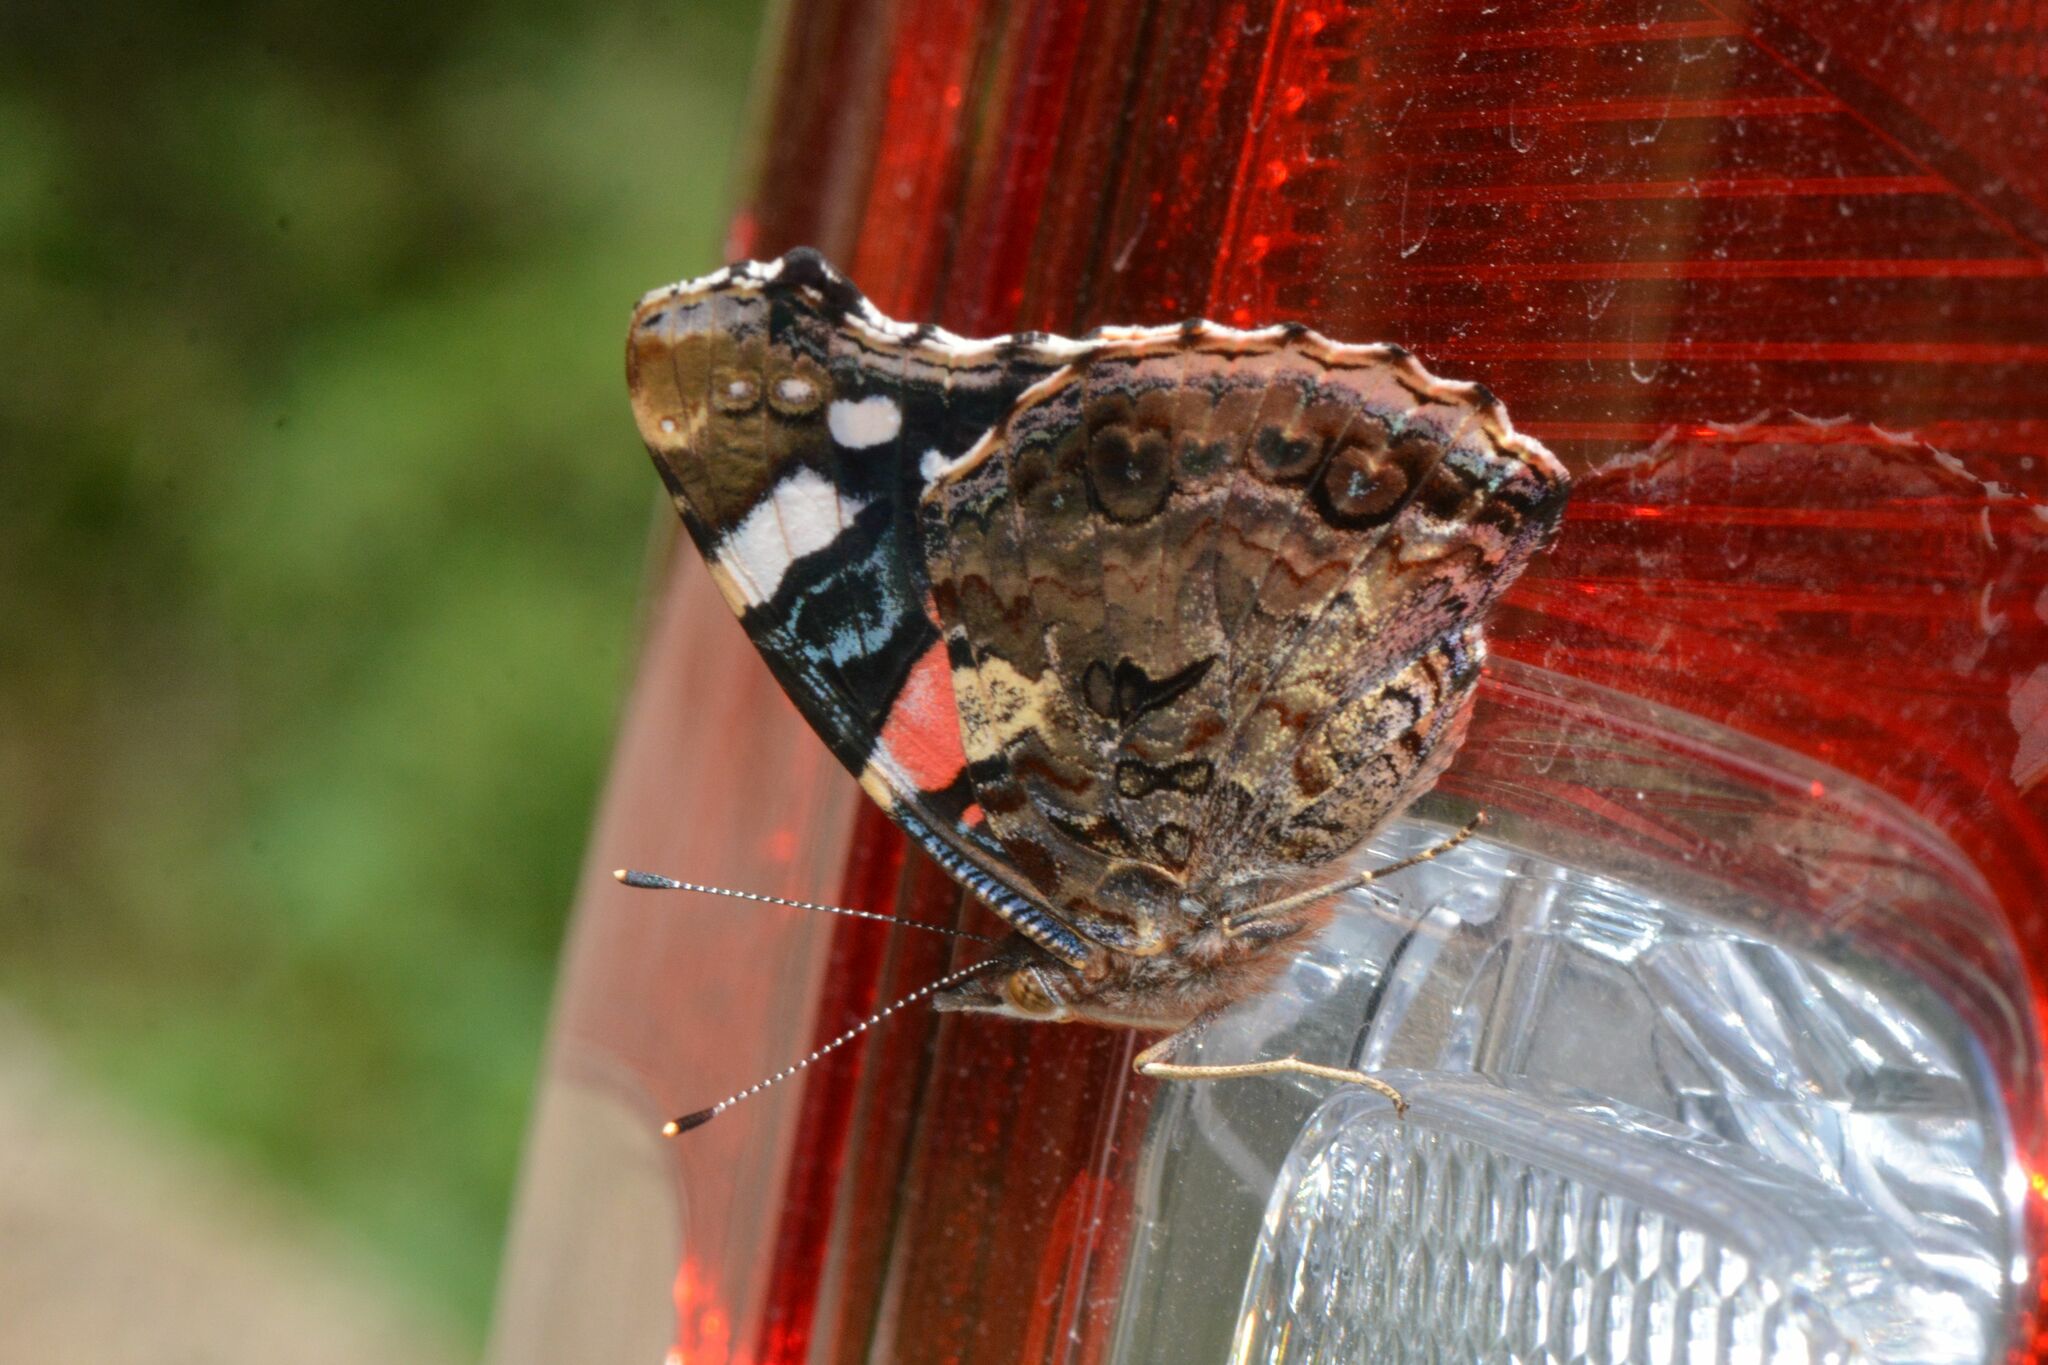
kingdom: Animalia
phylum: Arthropoda
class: Insecta
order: Lepidoptera
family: Nymphalidae
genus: Vanessa
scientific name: Vanessa atalanta
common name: Red admiral
